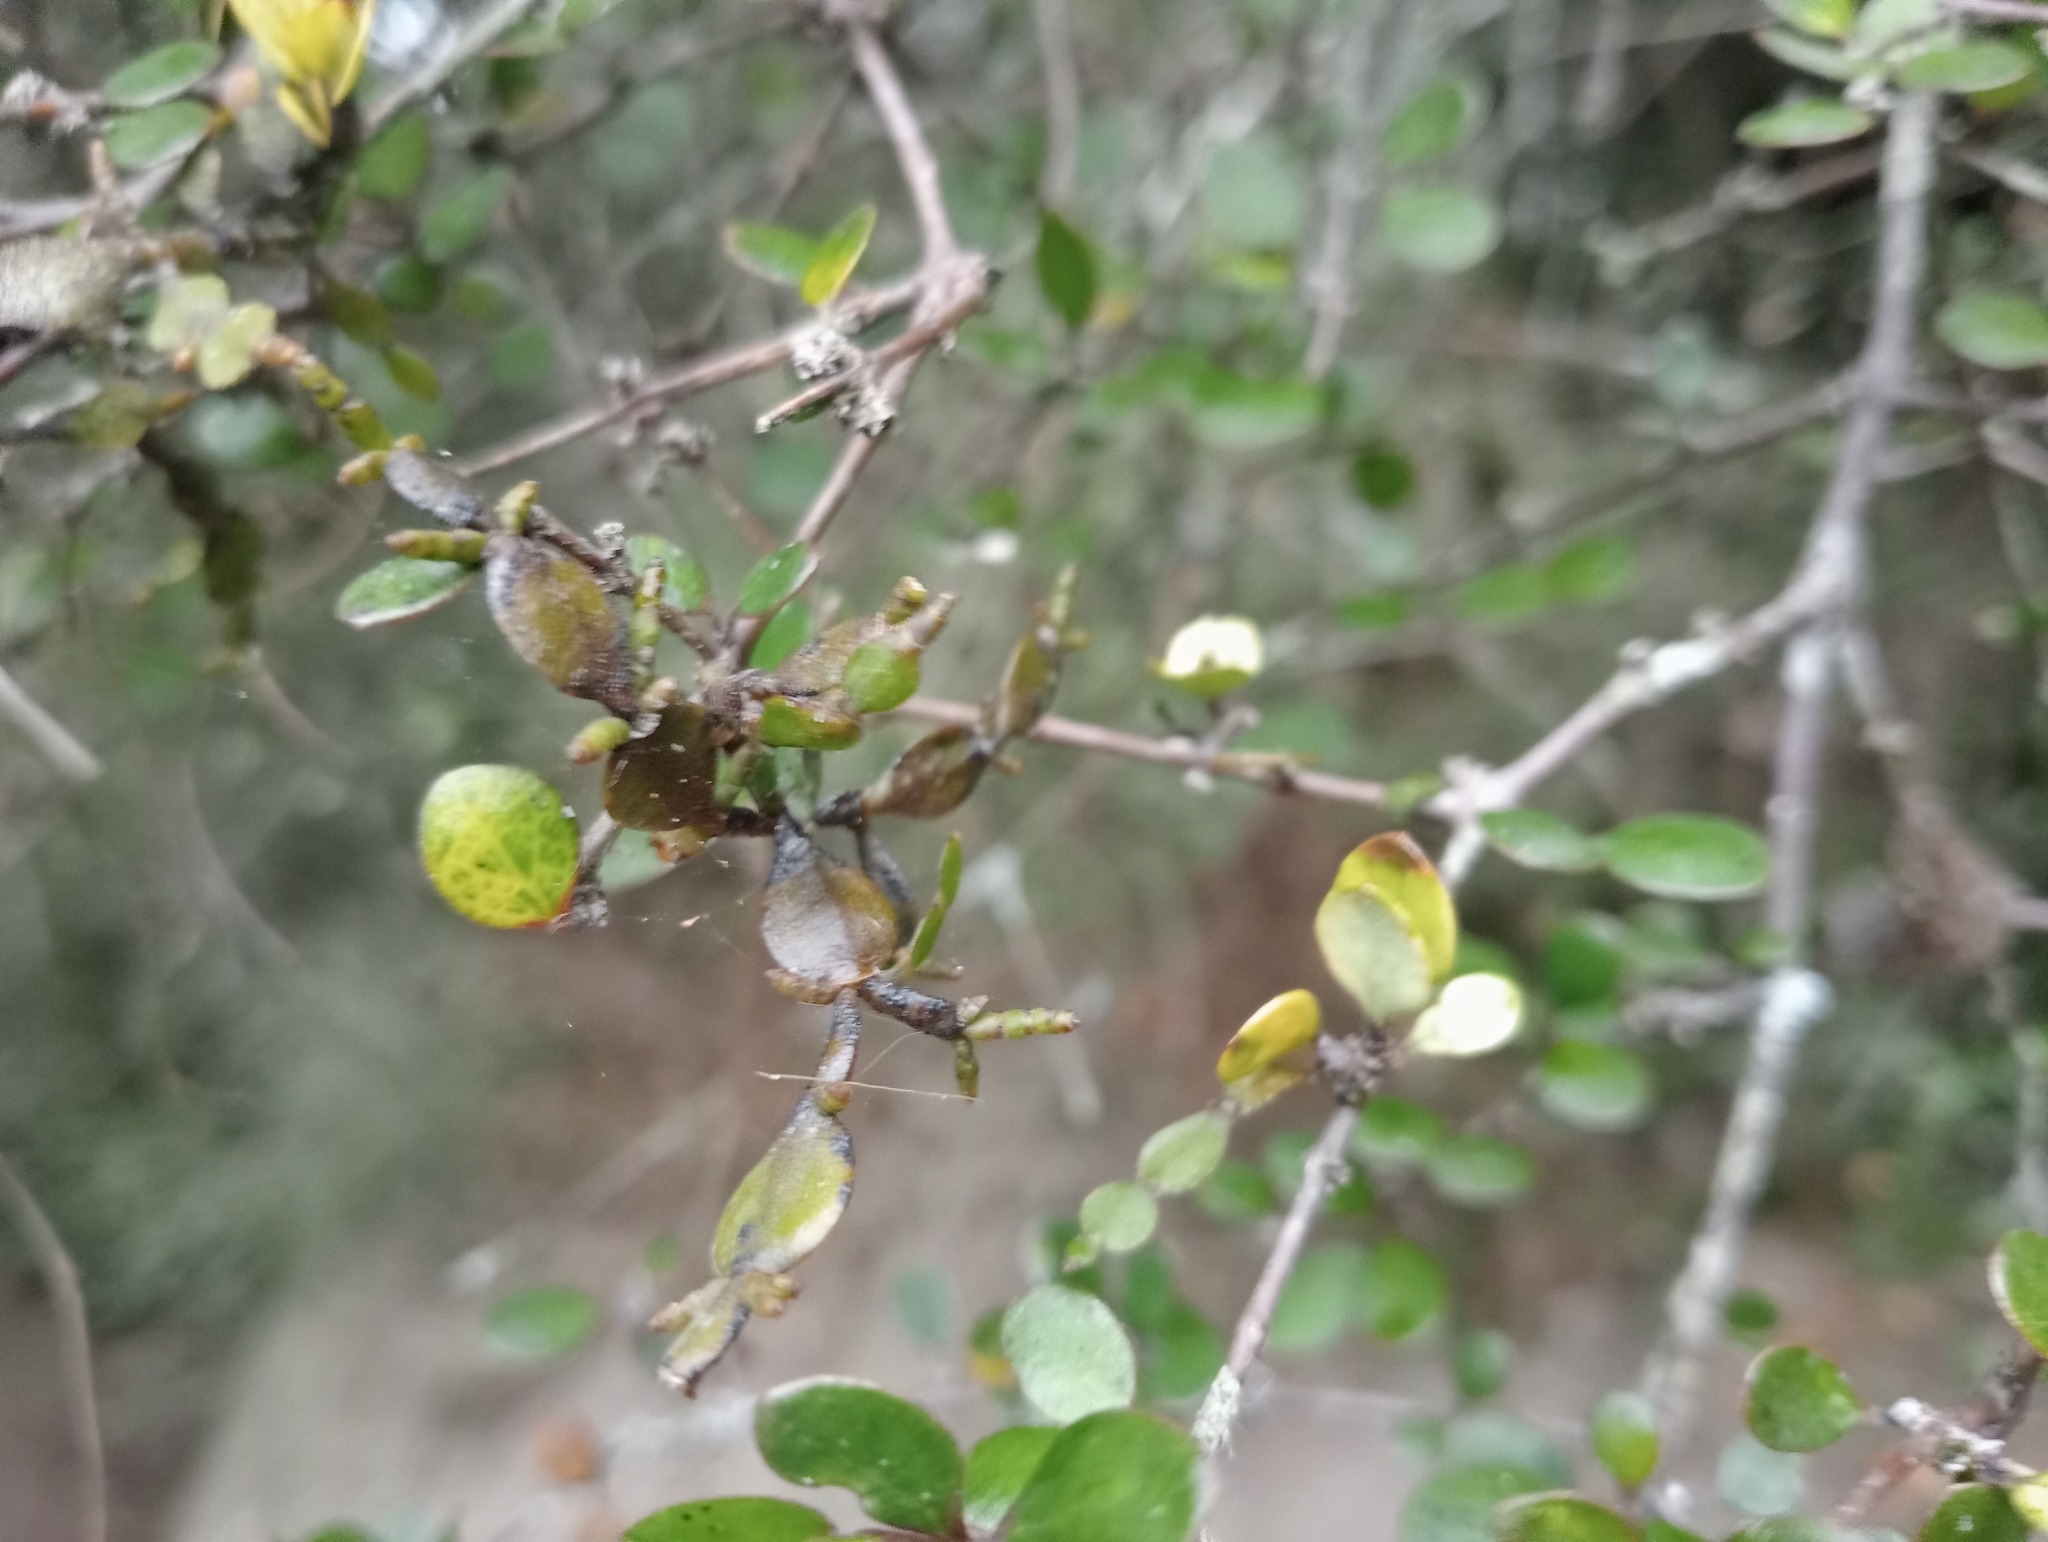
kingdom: Plantae
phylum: Tracheophyta
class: Magnoliopsida
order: Santalales
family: Viscaceae
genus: Korthalsella
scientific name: Korthalsella lindsayi
